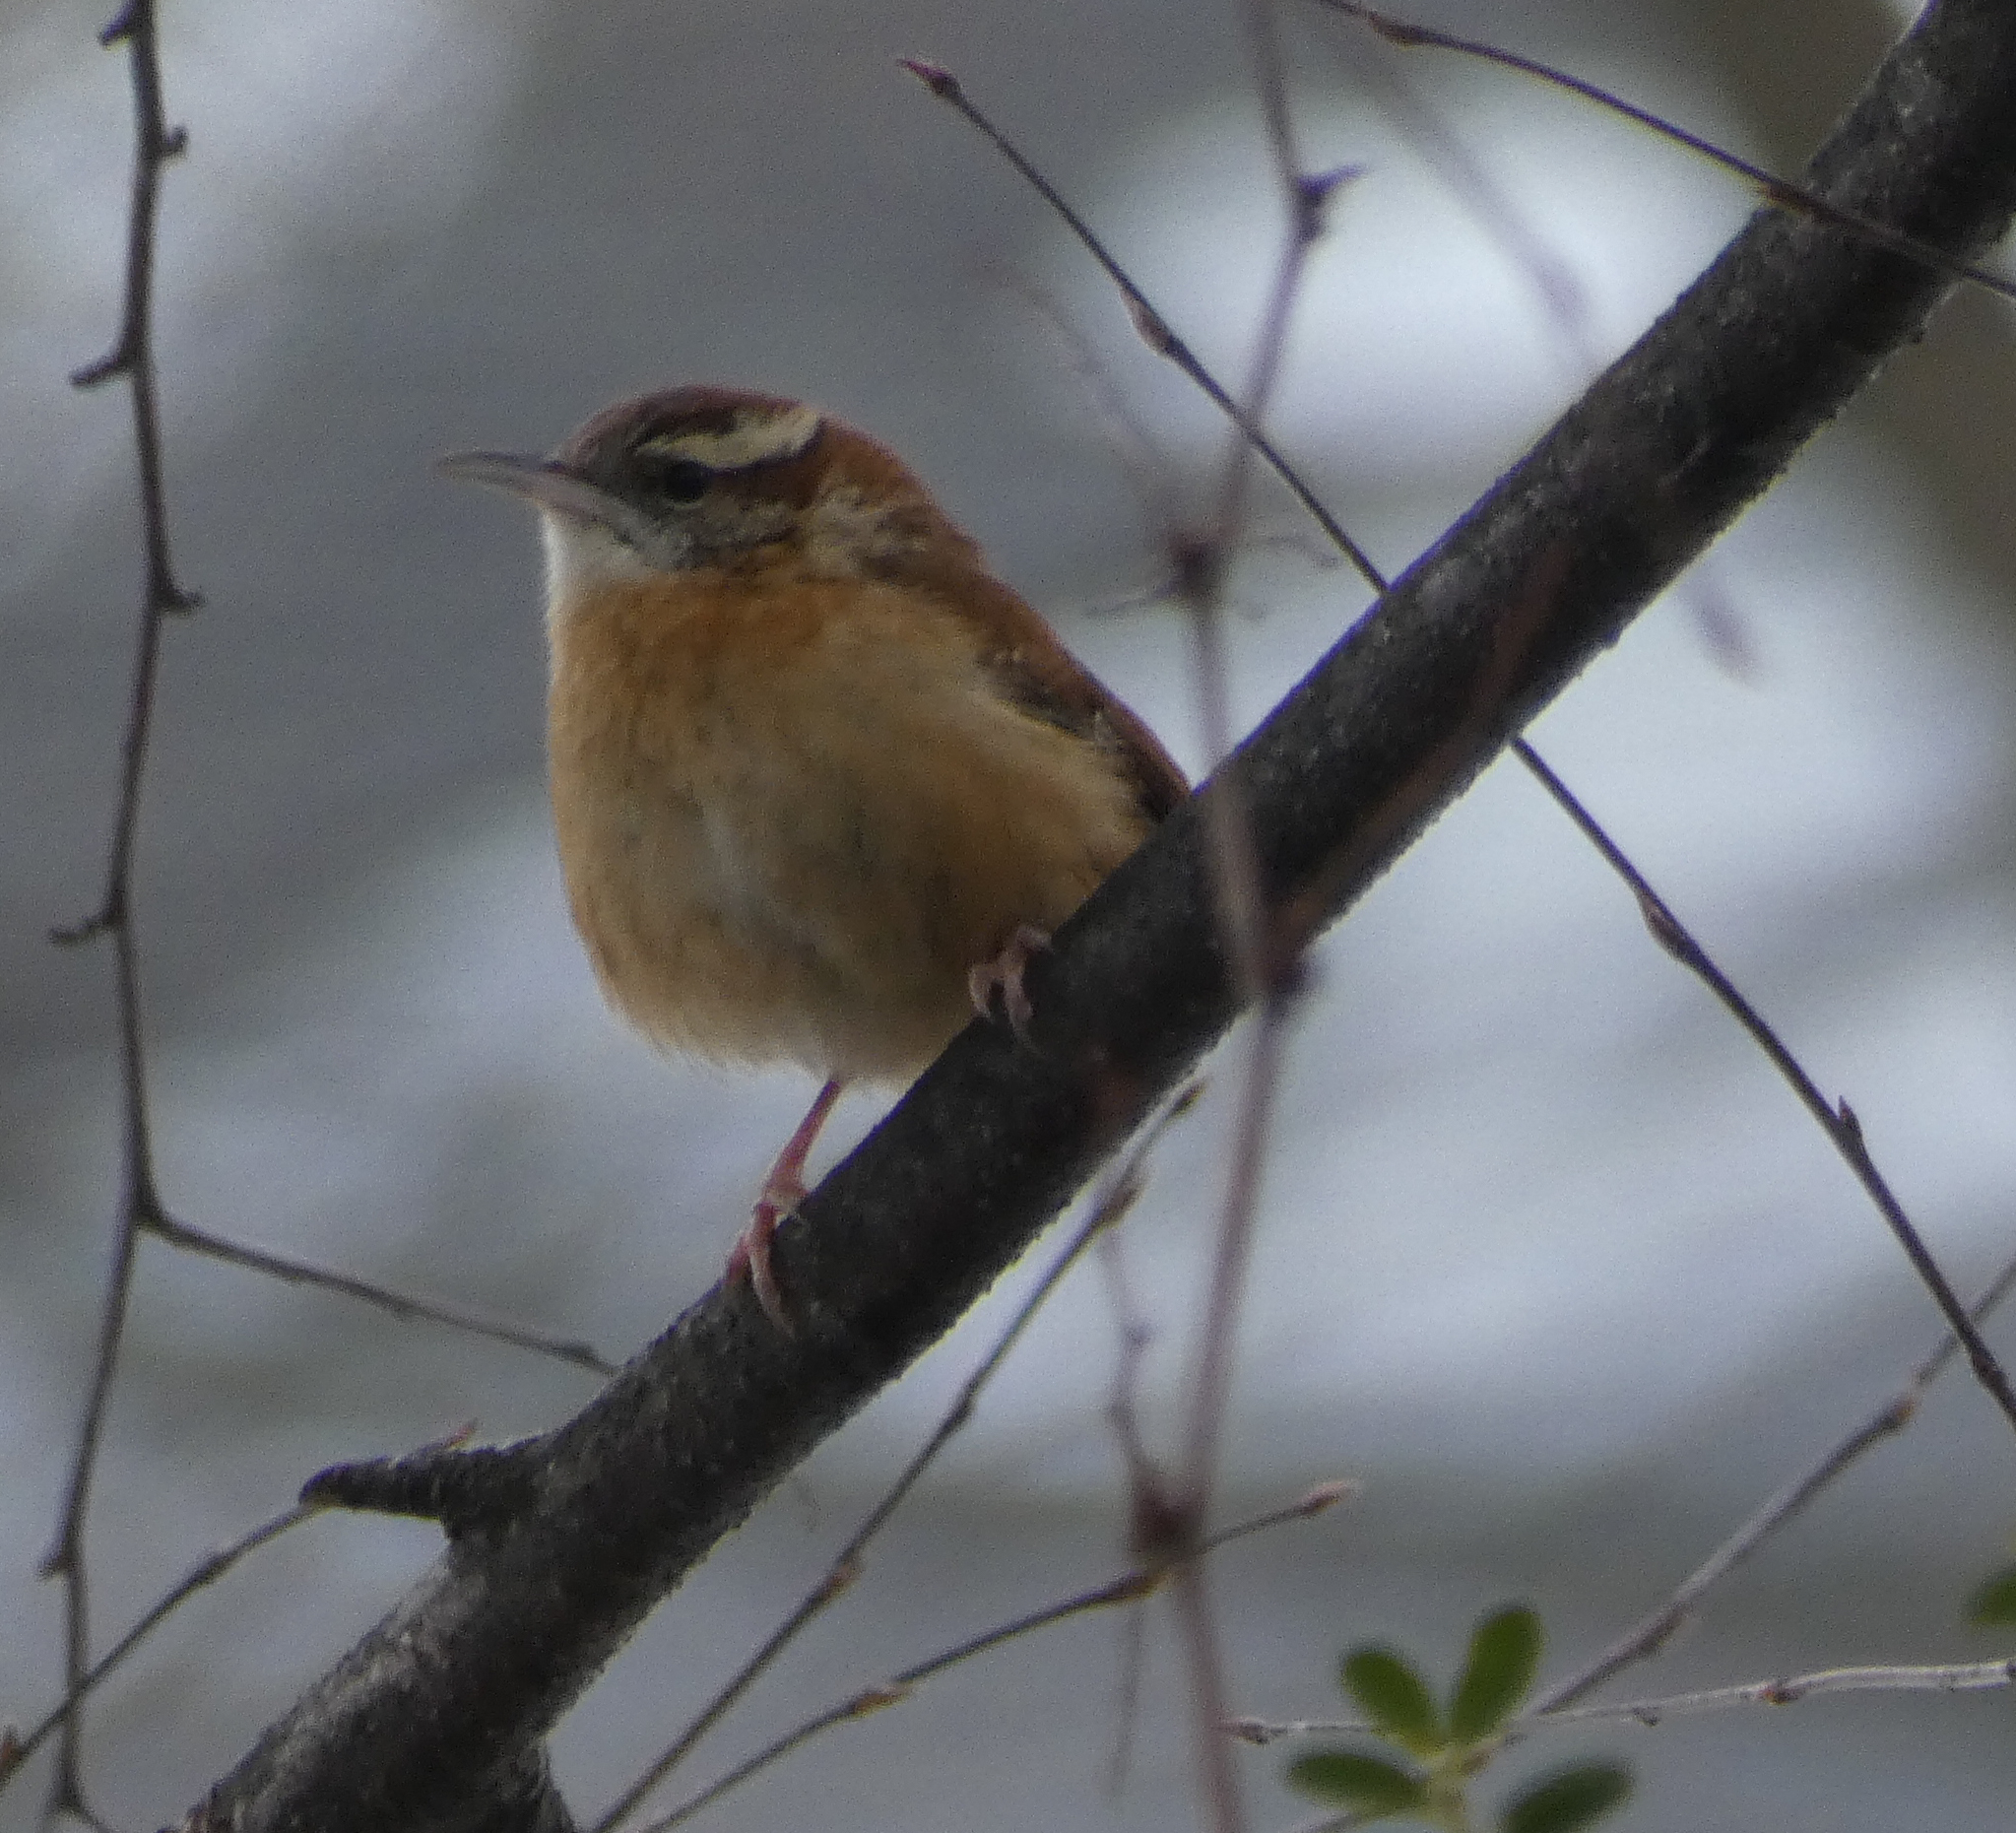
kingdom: Animalia
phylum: Chordata
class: Aves
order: Passeriformes
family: Troglodytidae
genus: Thryothorus
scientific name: Thryothorus ludovicianus
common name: Carolina wren
